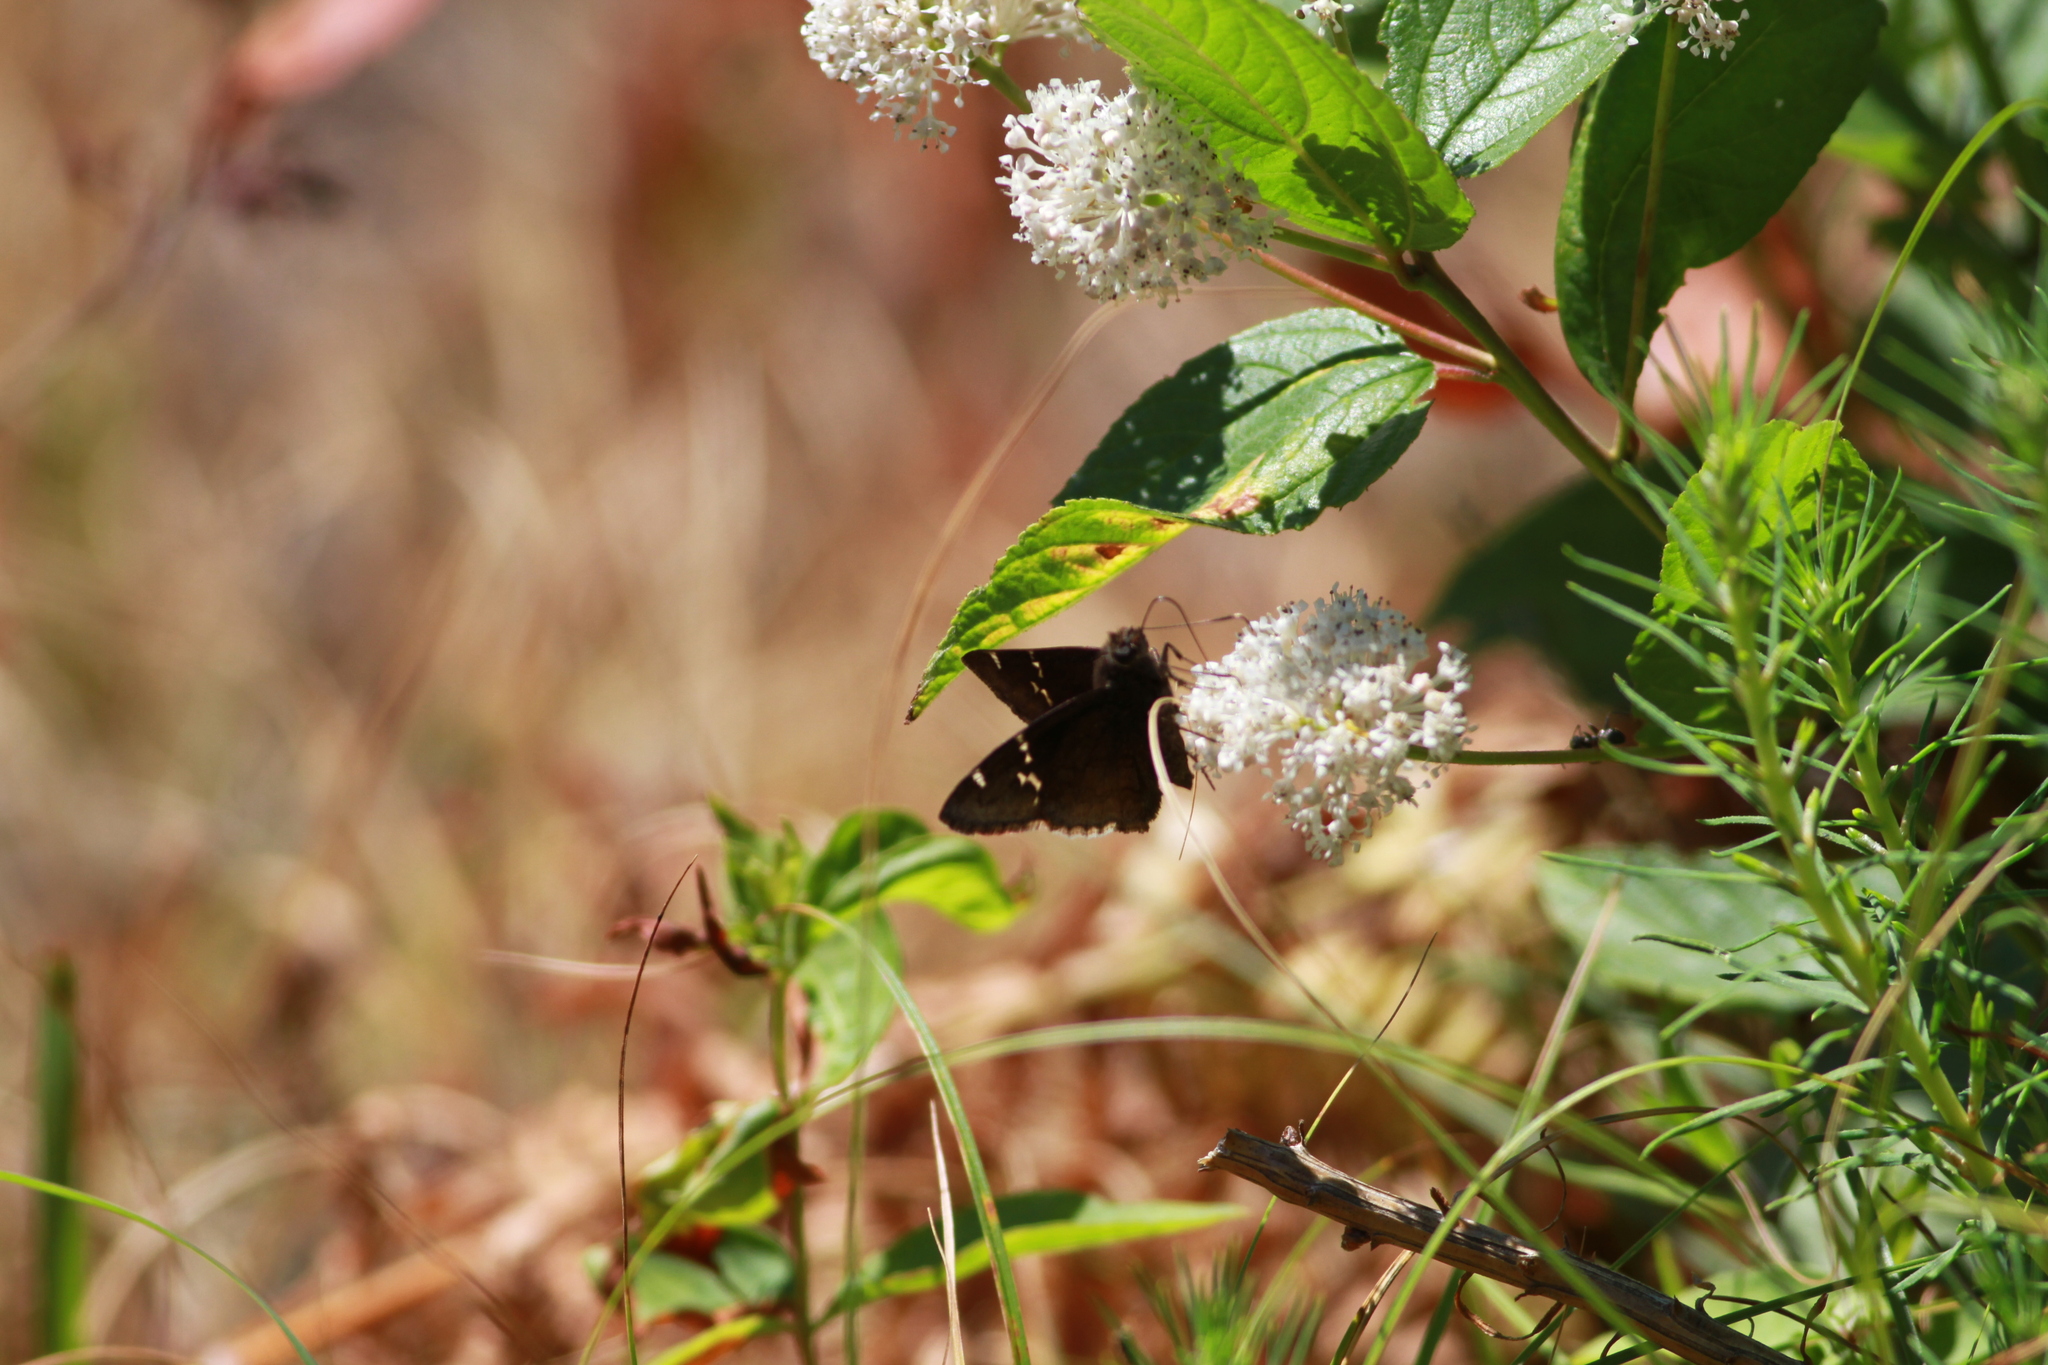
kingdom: Animalia
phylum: Arthropoda
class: Insecta
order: Lepidoptera
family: Hesperiidae
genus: Thorybes
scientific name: Thorybes daunus
